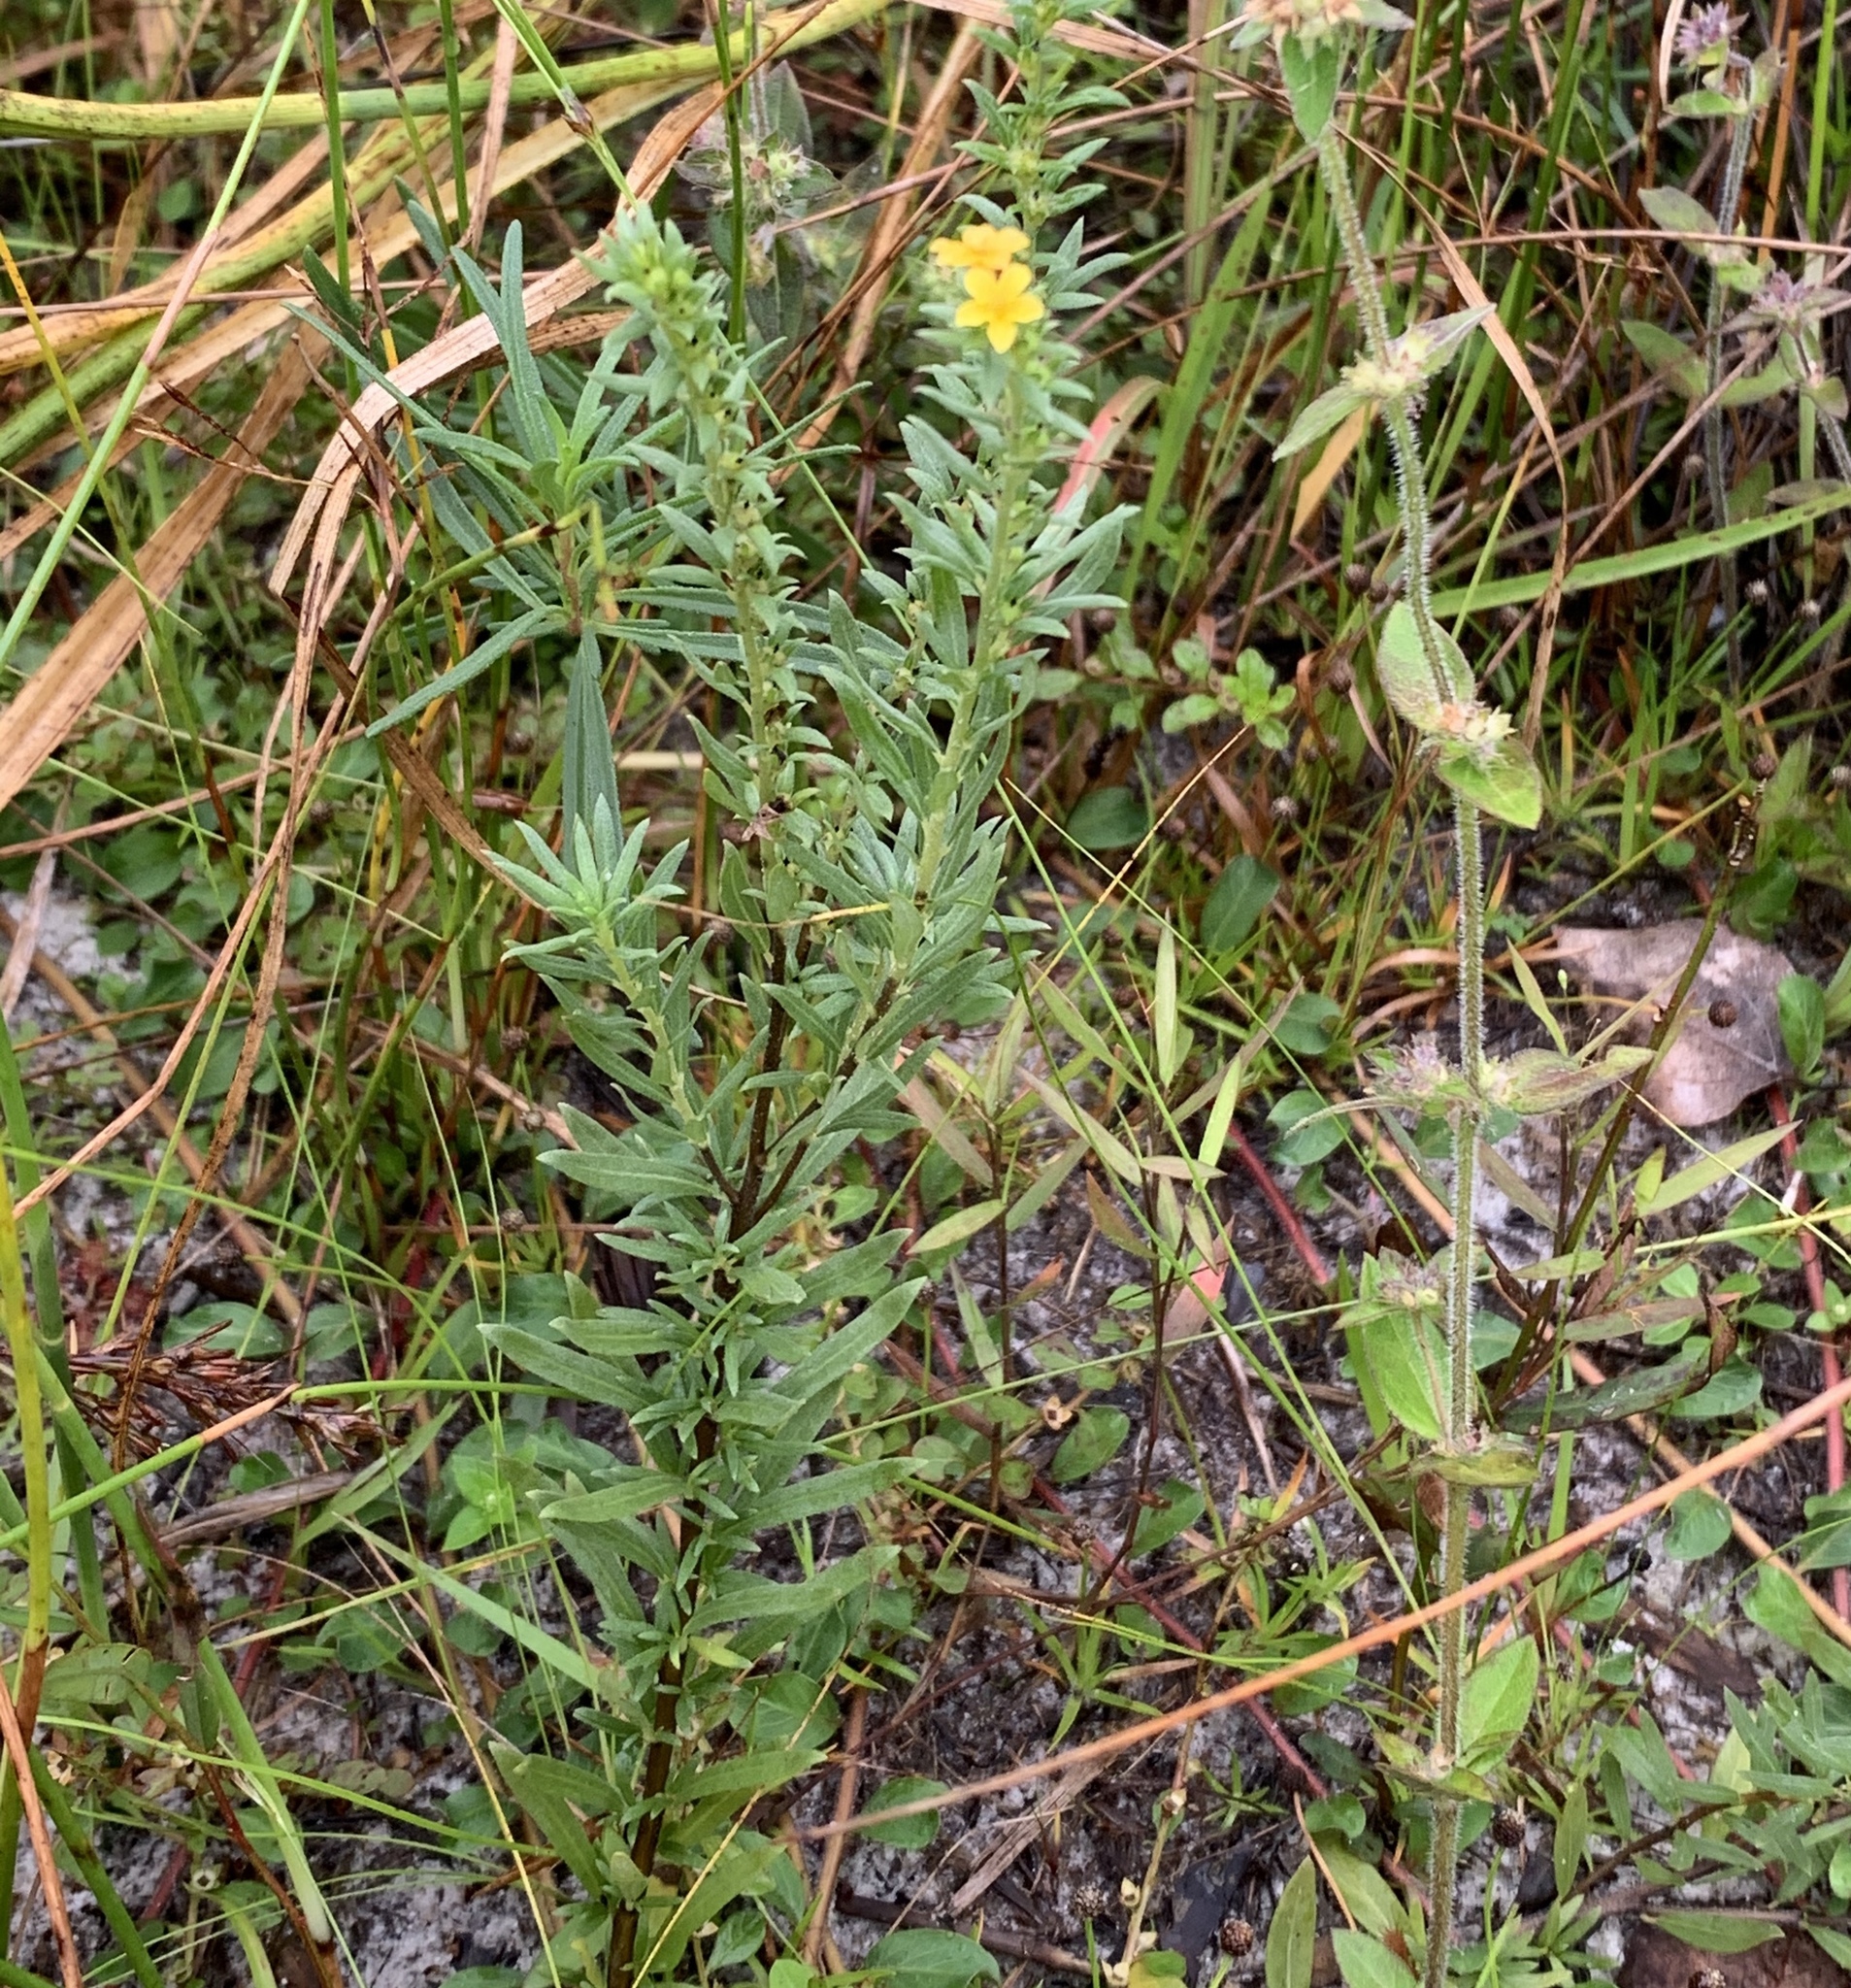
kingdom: Plantae
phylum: Tracheophyta
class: Magnoliopsida
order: Boraginales
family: Heliotropiaceae
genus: Euploca
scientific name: Euploca polyphylla
